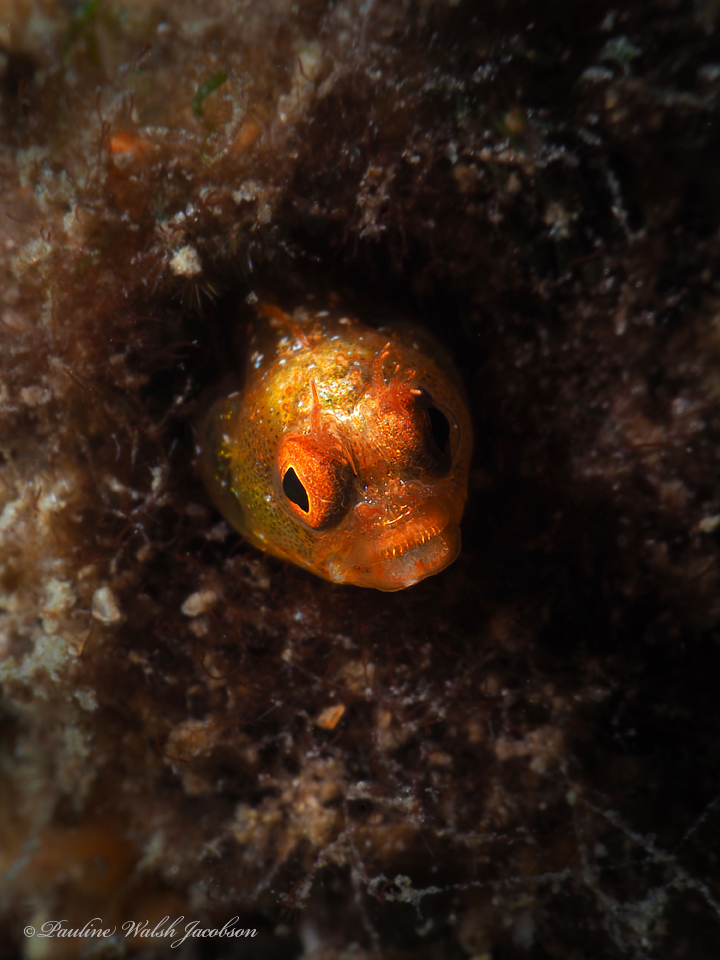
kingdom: Animalia
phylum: Chordata
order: Perciformes
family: Chaenopsidae
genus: Acanthemblemaria
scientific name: Acanthemblemaria aspera
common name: Roughhead blenny
